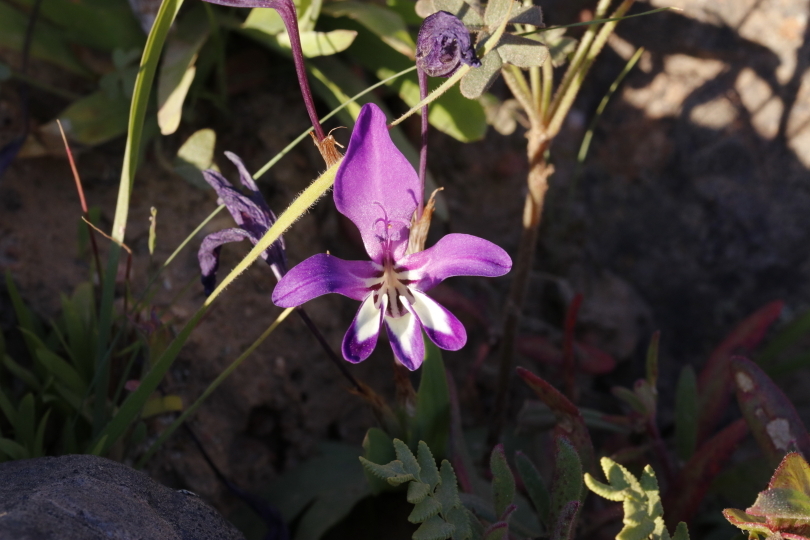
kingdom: Plantae
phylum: Tracheophyta
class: Liliopsida
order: Asparagales
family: Iridaceae
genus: Sparaxis
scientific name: Sparaxis metelerkampiae
